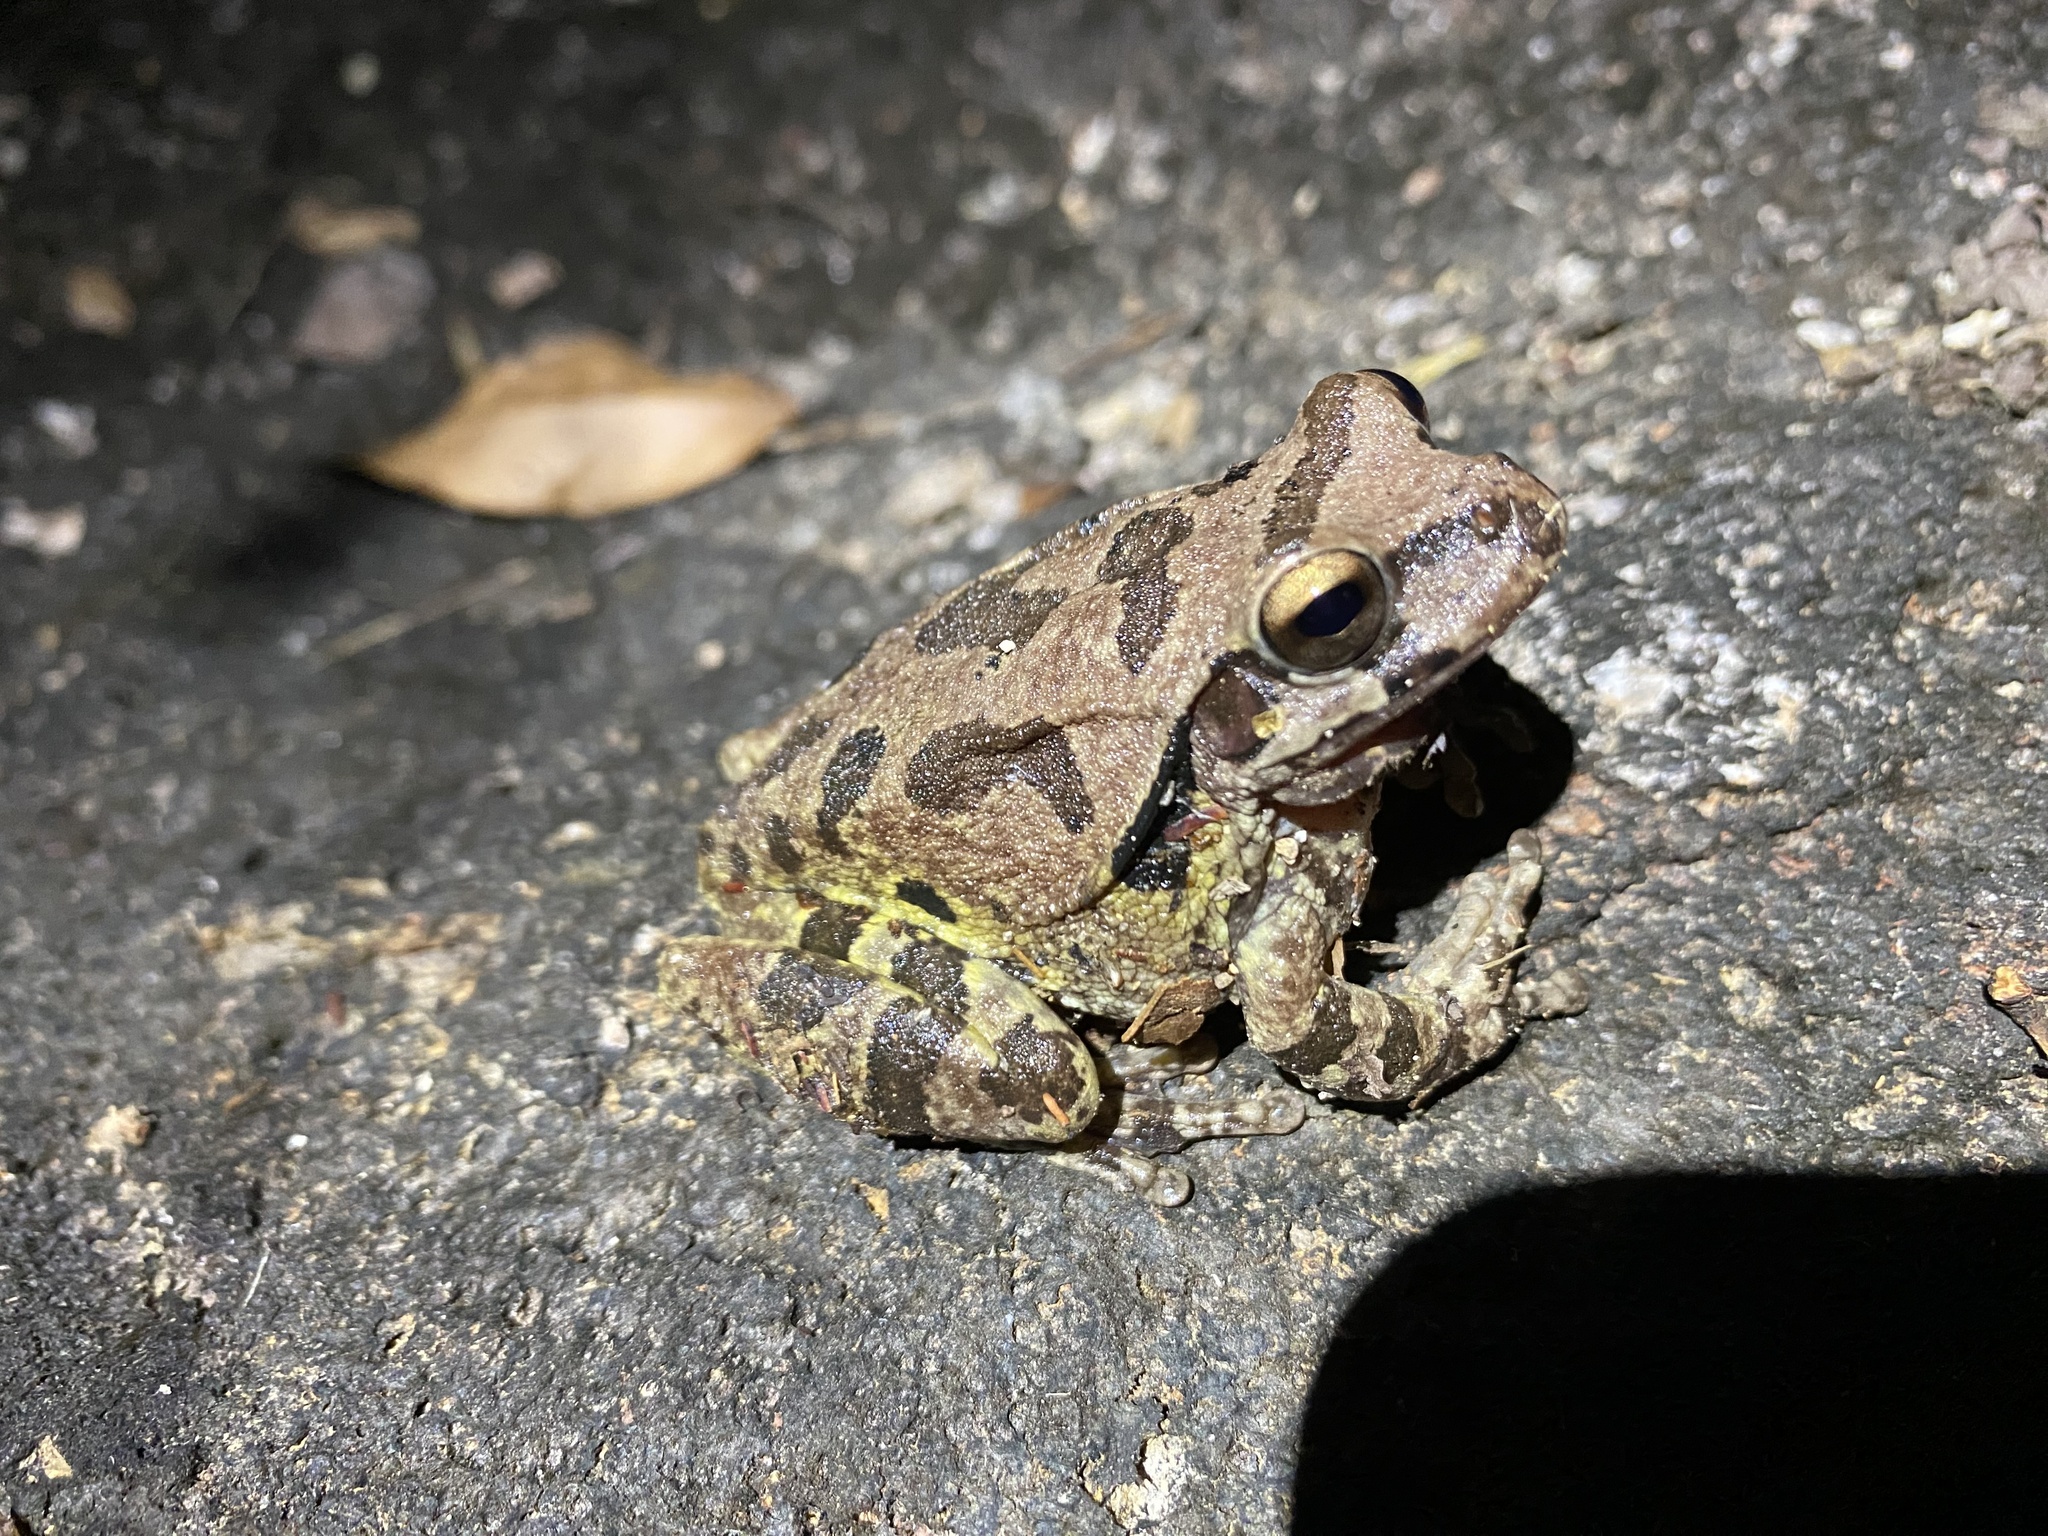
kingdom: Animalia
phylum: Chordata
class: Amphibia
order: Anura
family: Hylidae
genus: Smilisca
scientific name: Smilisca baudinii
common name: Mexican smilisca
